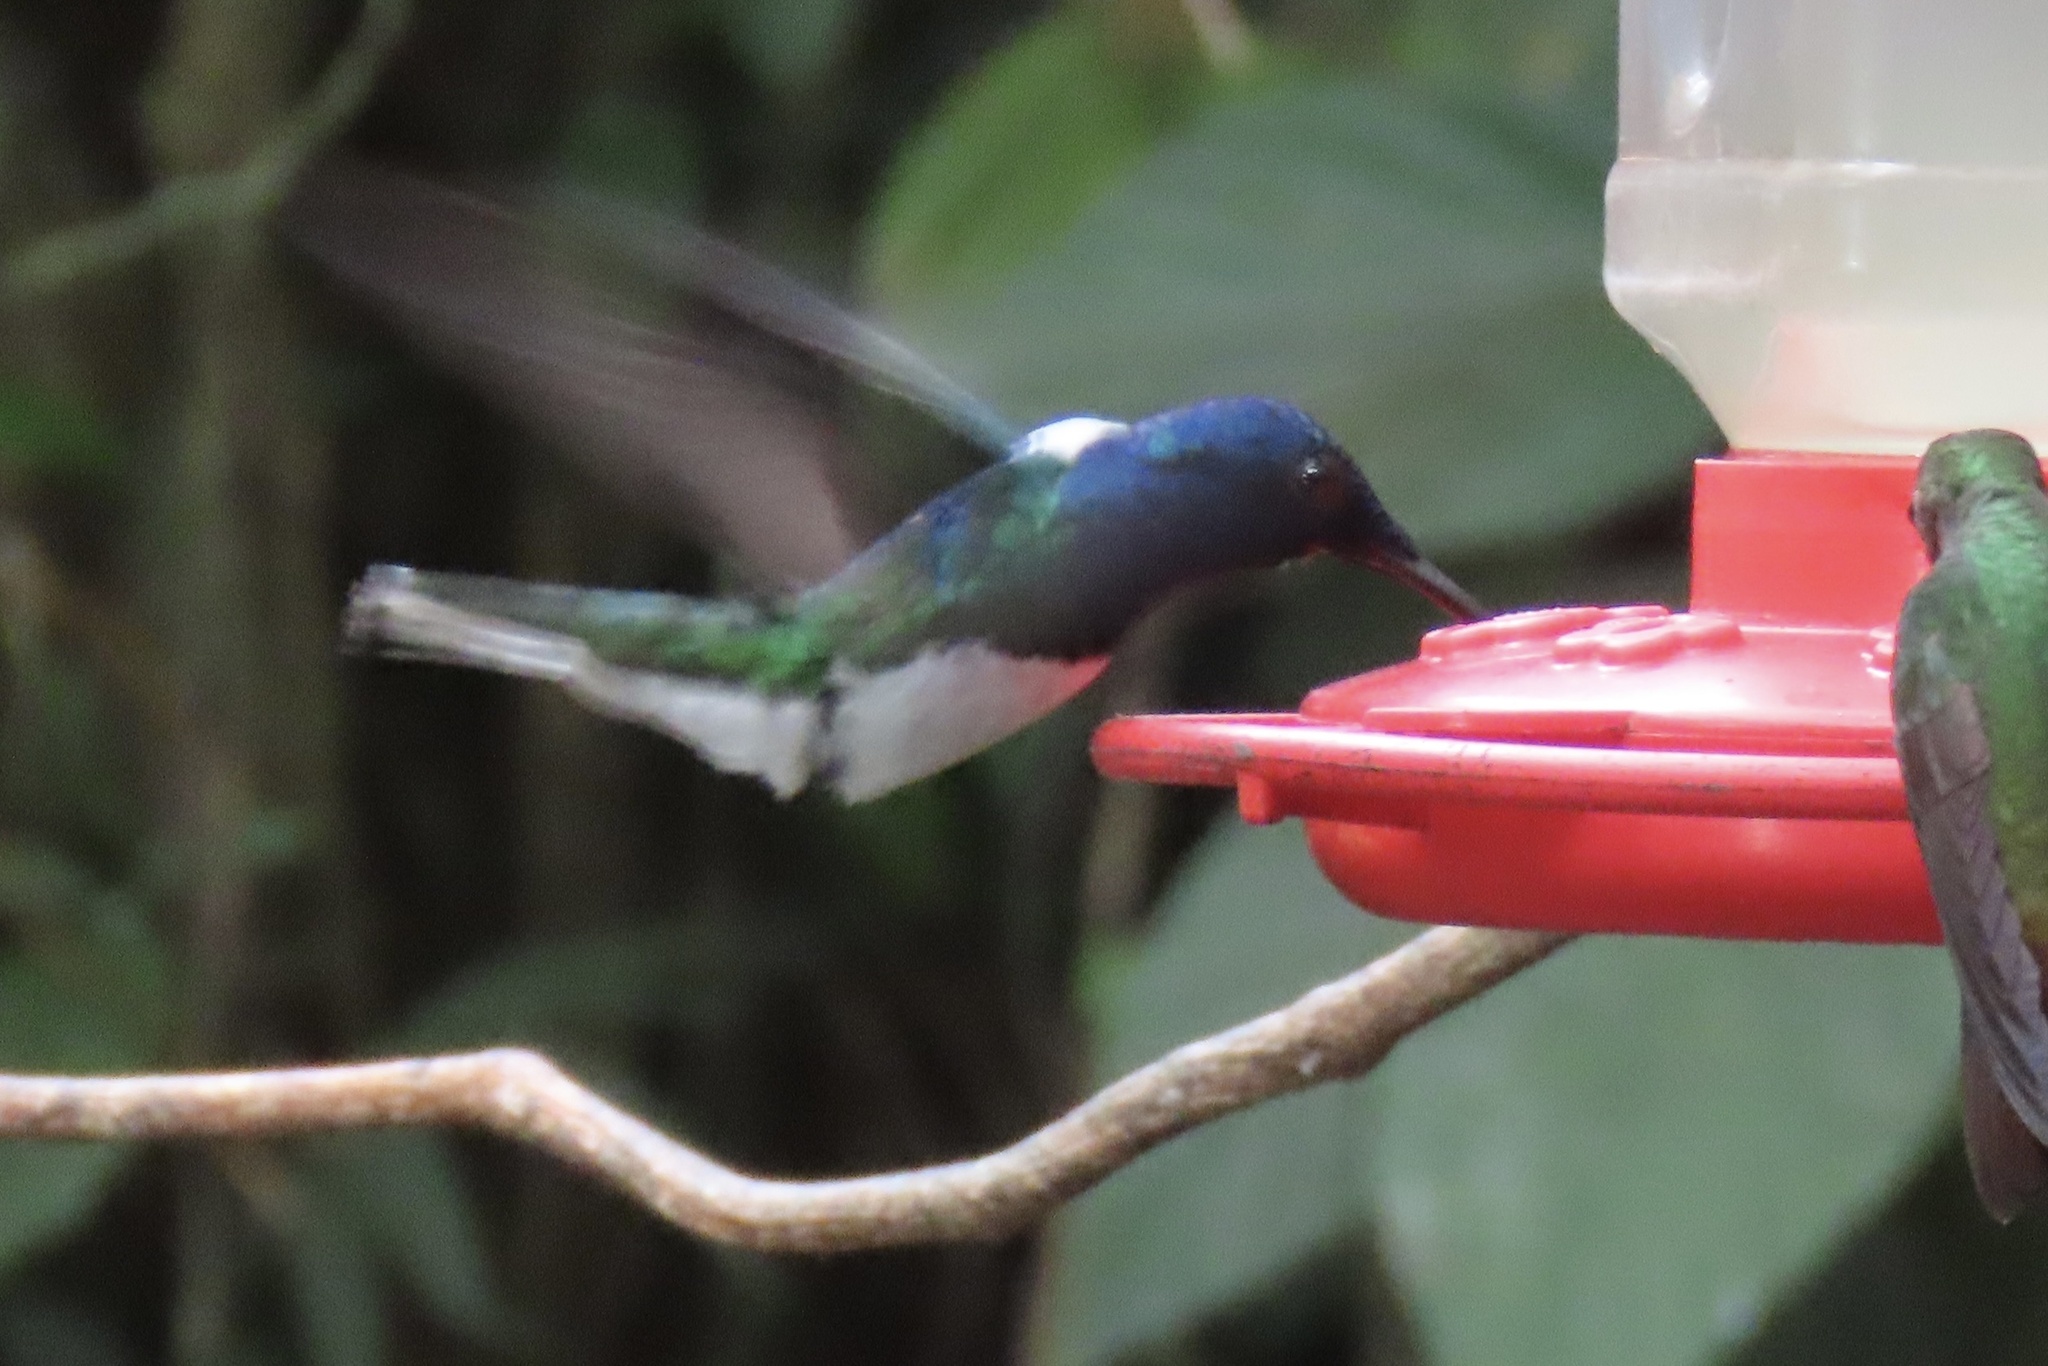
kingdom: Animalia
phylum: Chordata
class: Aves
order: Apodiformes
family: Trochilidae
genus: Florisuga
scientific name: Florisuga mellivora
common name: White-necked jacobin
